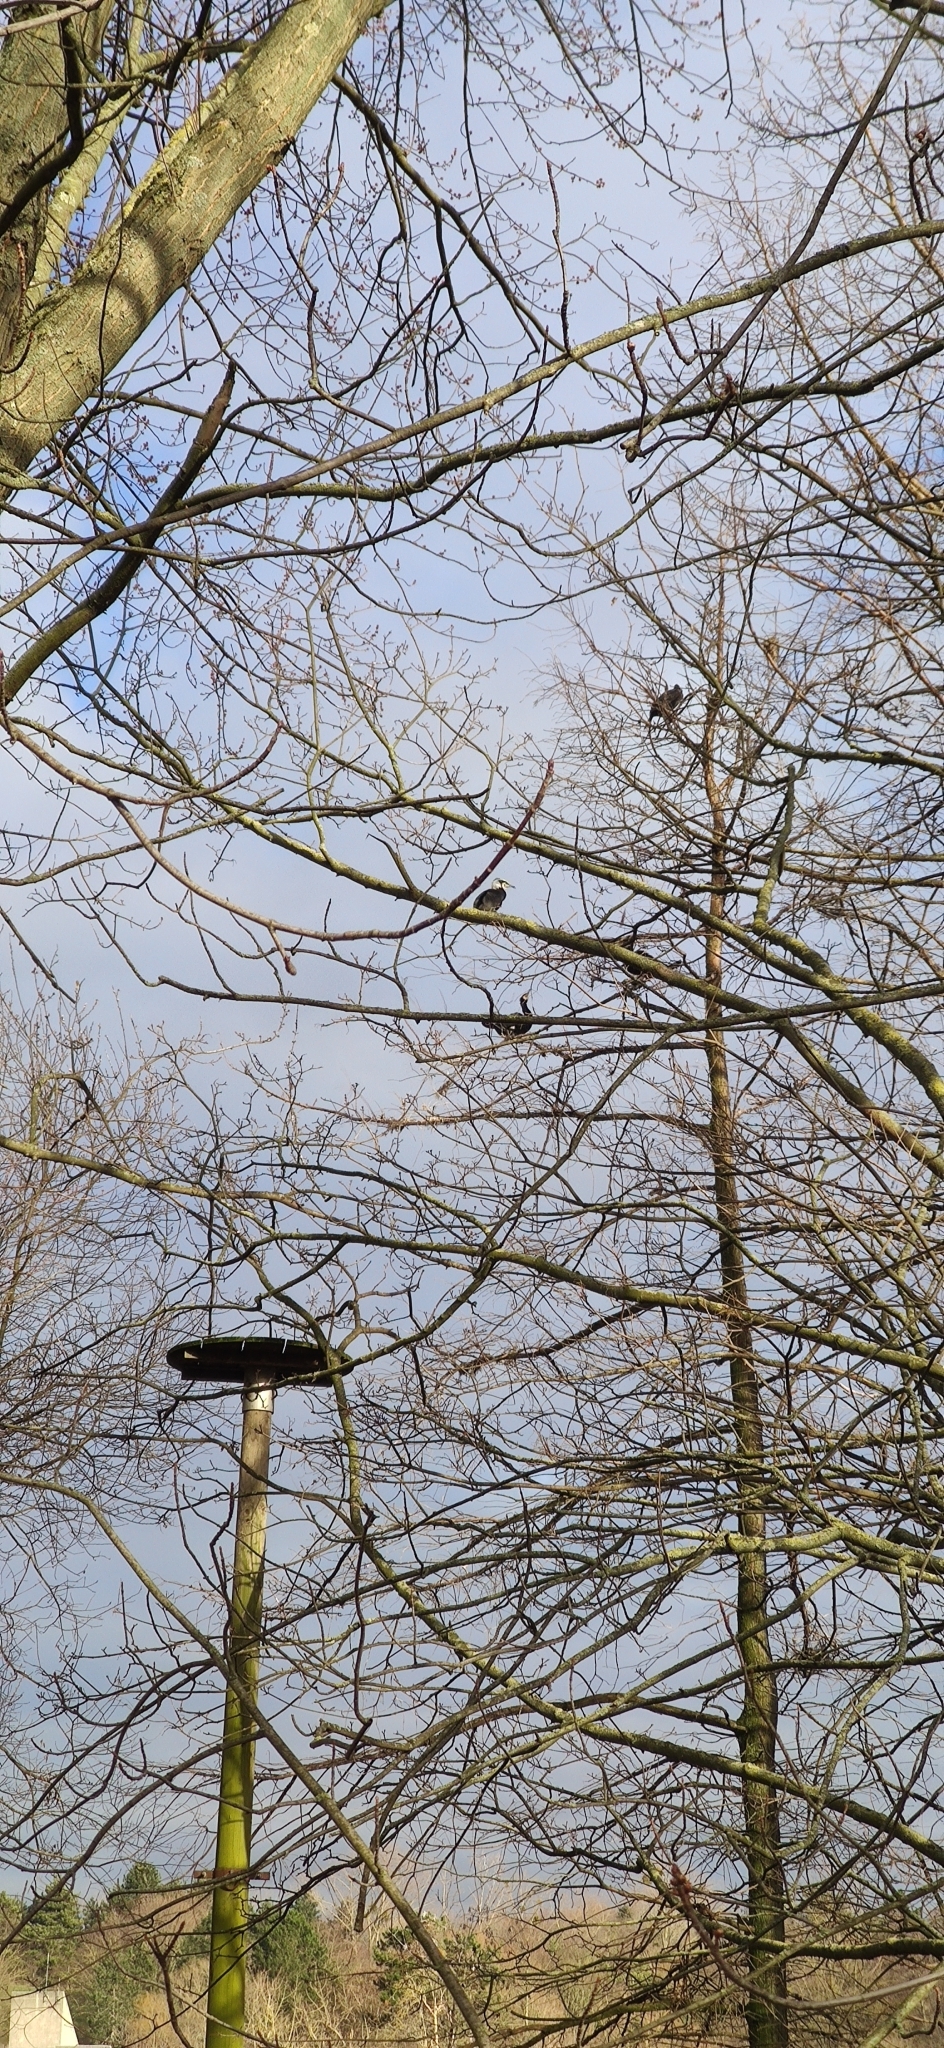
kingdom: Animalia
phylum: Chordata
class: Aves
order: Suliformes
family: Phalacrocoracidae
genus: Phalacrocorax
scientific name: Phalacrocorax carbo
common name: Great cormorant
